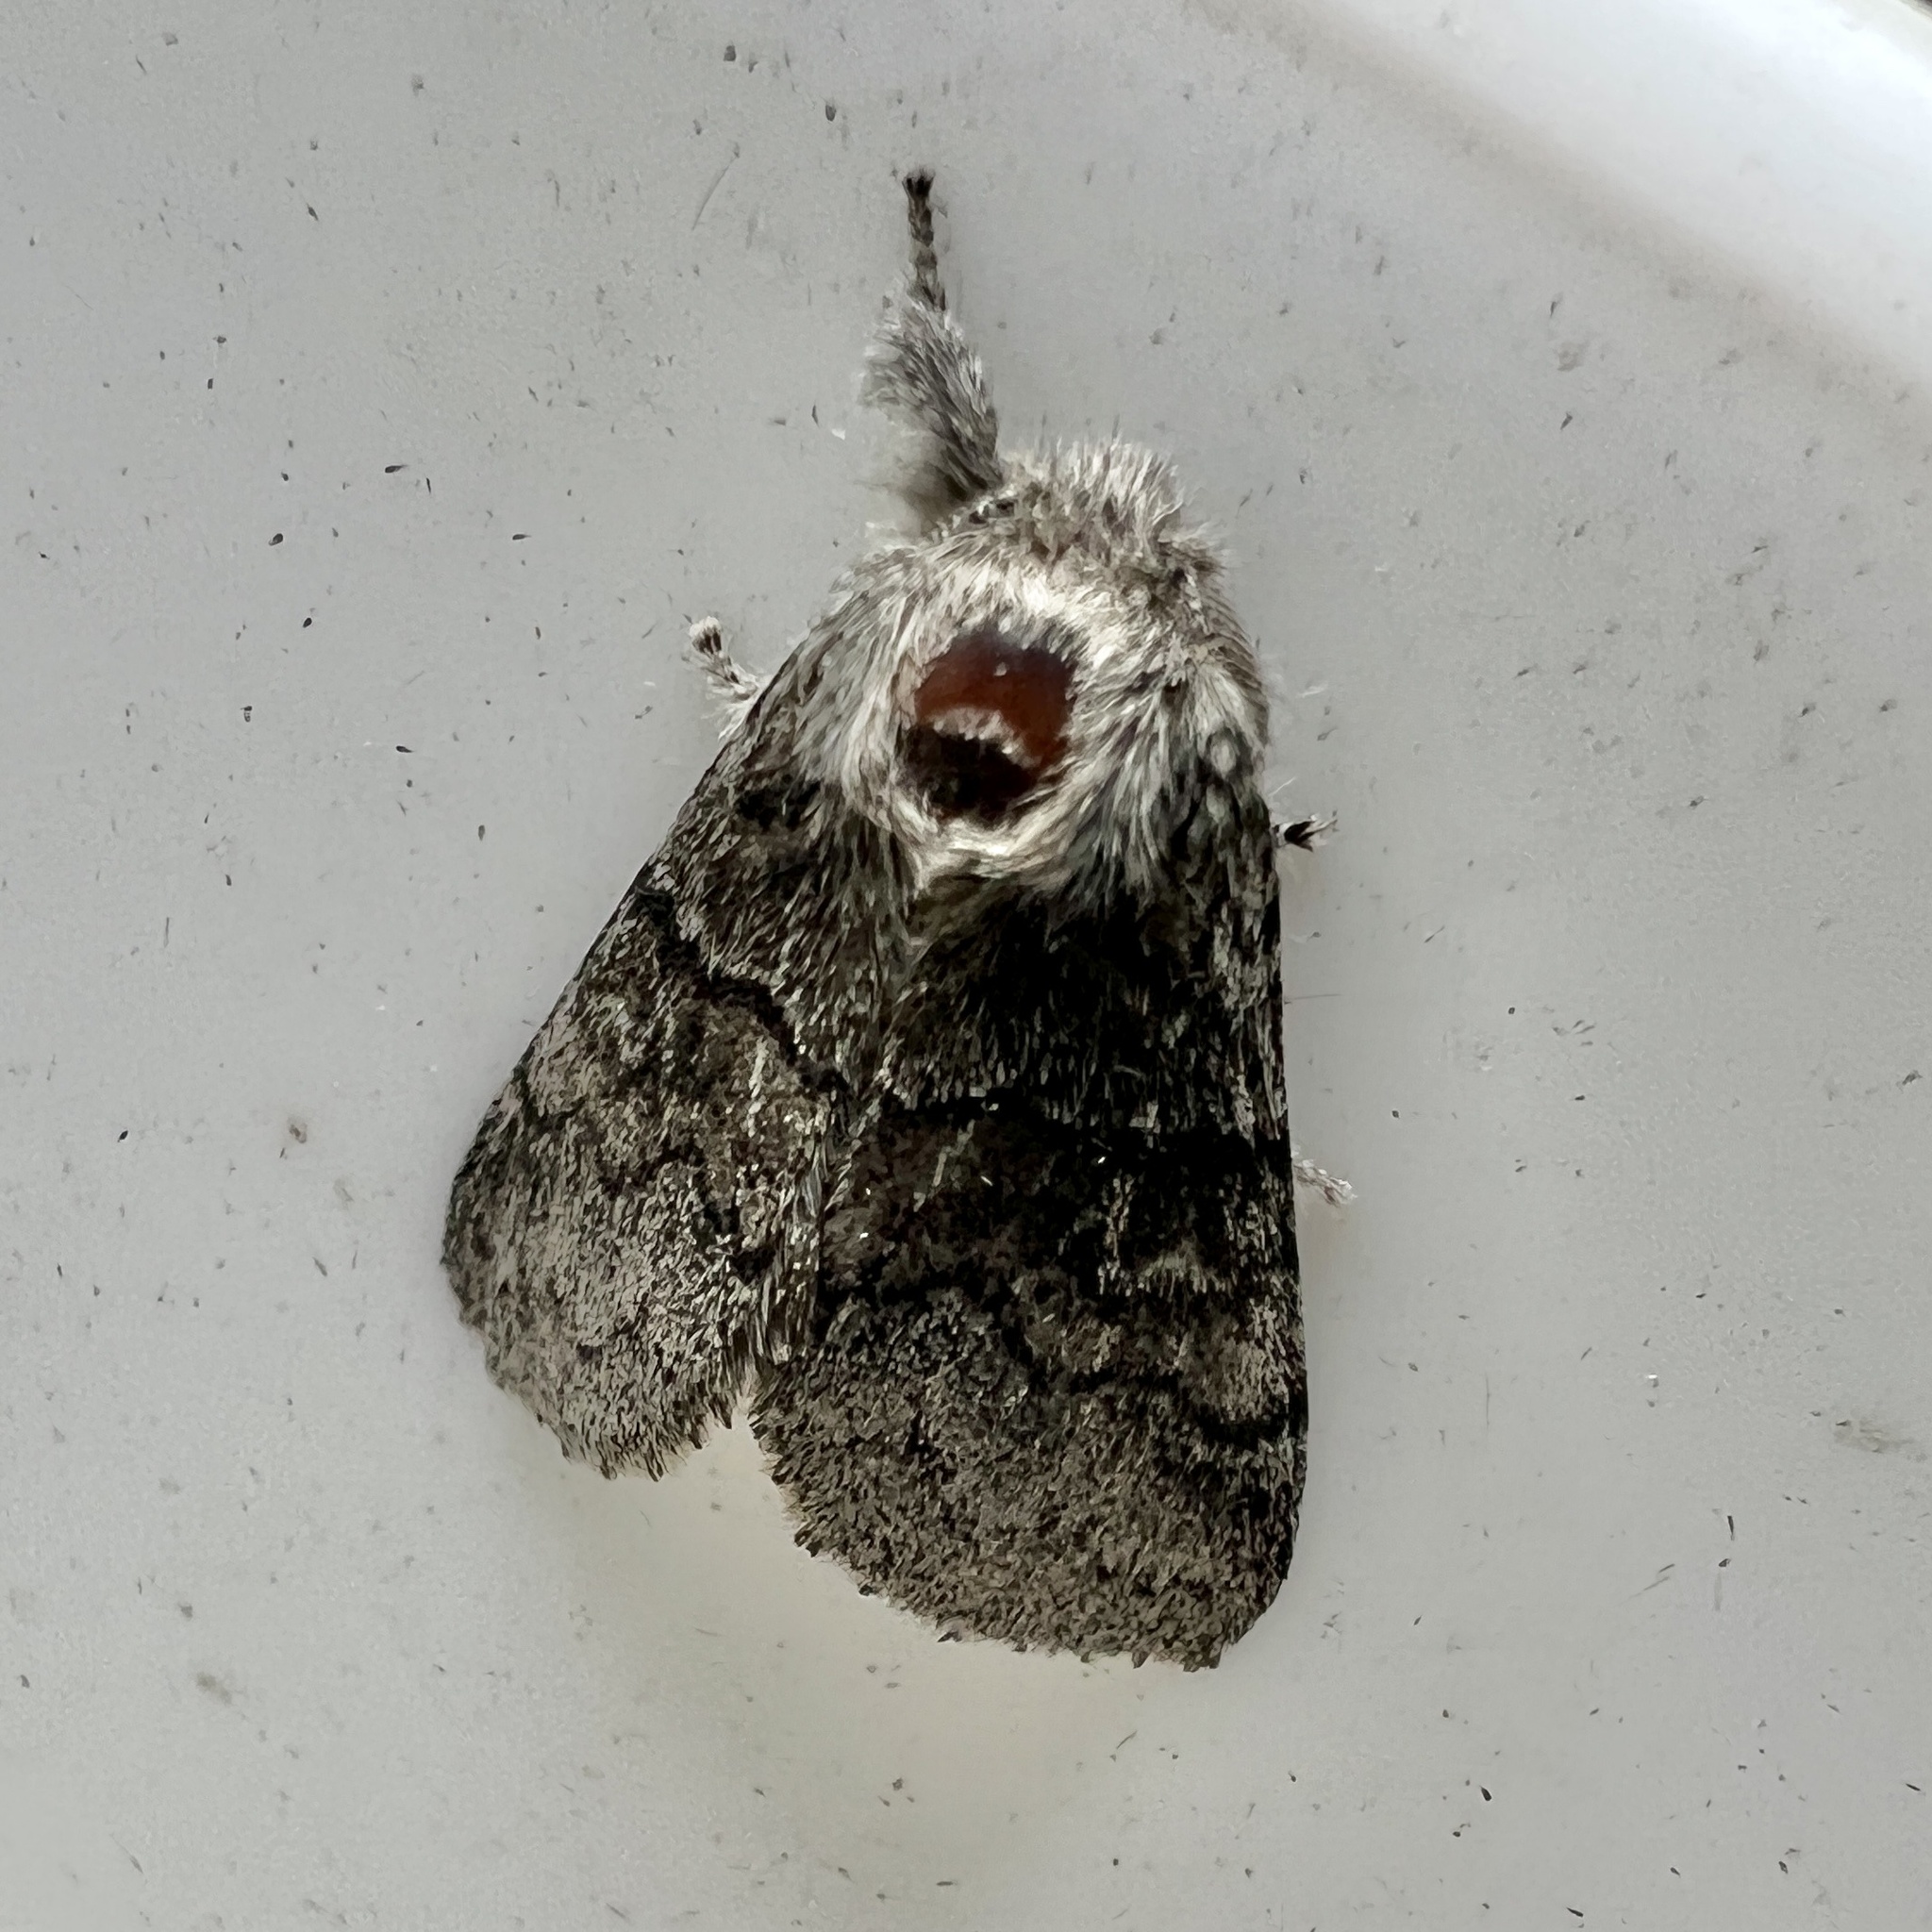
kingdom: Animalia
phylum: Arthropoda
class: Insecta
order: Lepidoptera
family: Notodontidae
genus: Gluphisia
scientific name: Gluphisia septentrionis
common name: Common gluphisia
